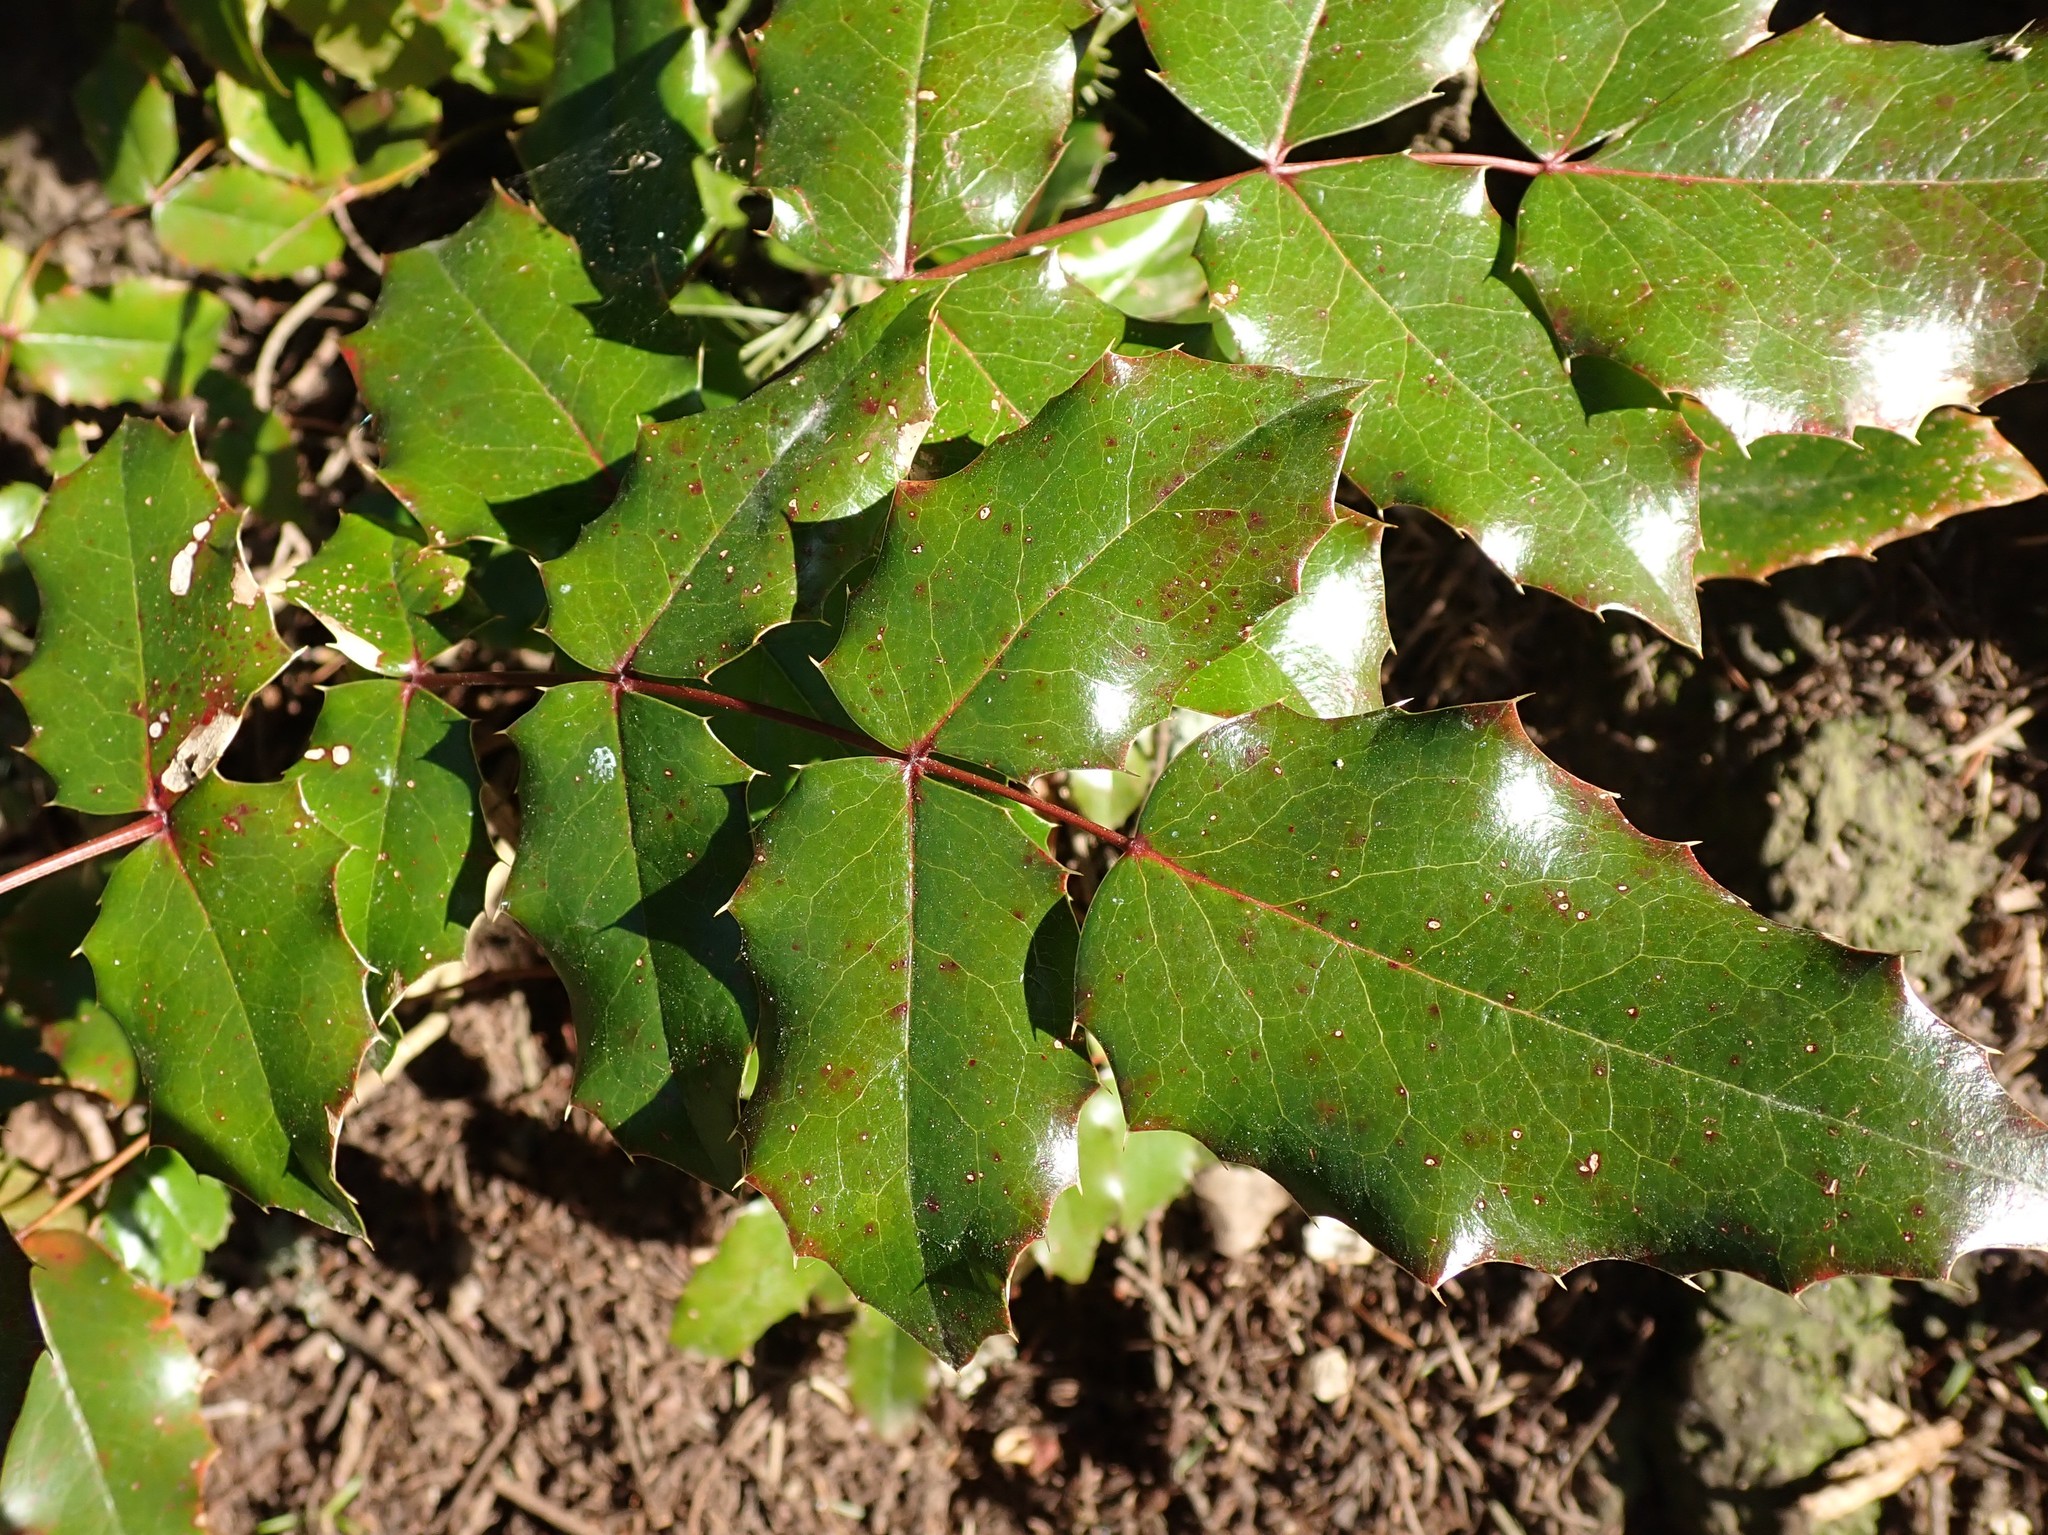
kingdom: Plantae
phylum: Tracheophyta
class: Magnoliopsida
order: Ranunculales
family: Berberidaceae
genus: Mahonia
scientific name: Mahonia aquifolium
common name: Oregon-grape
